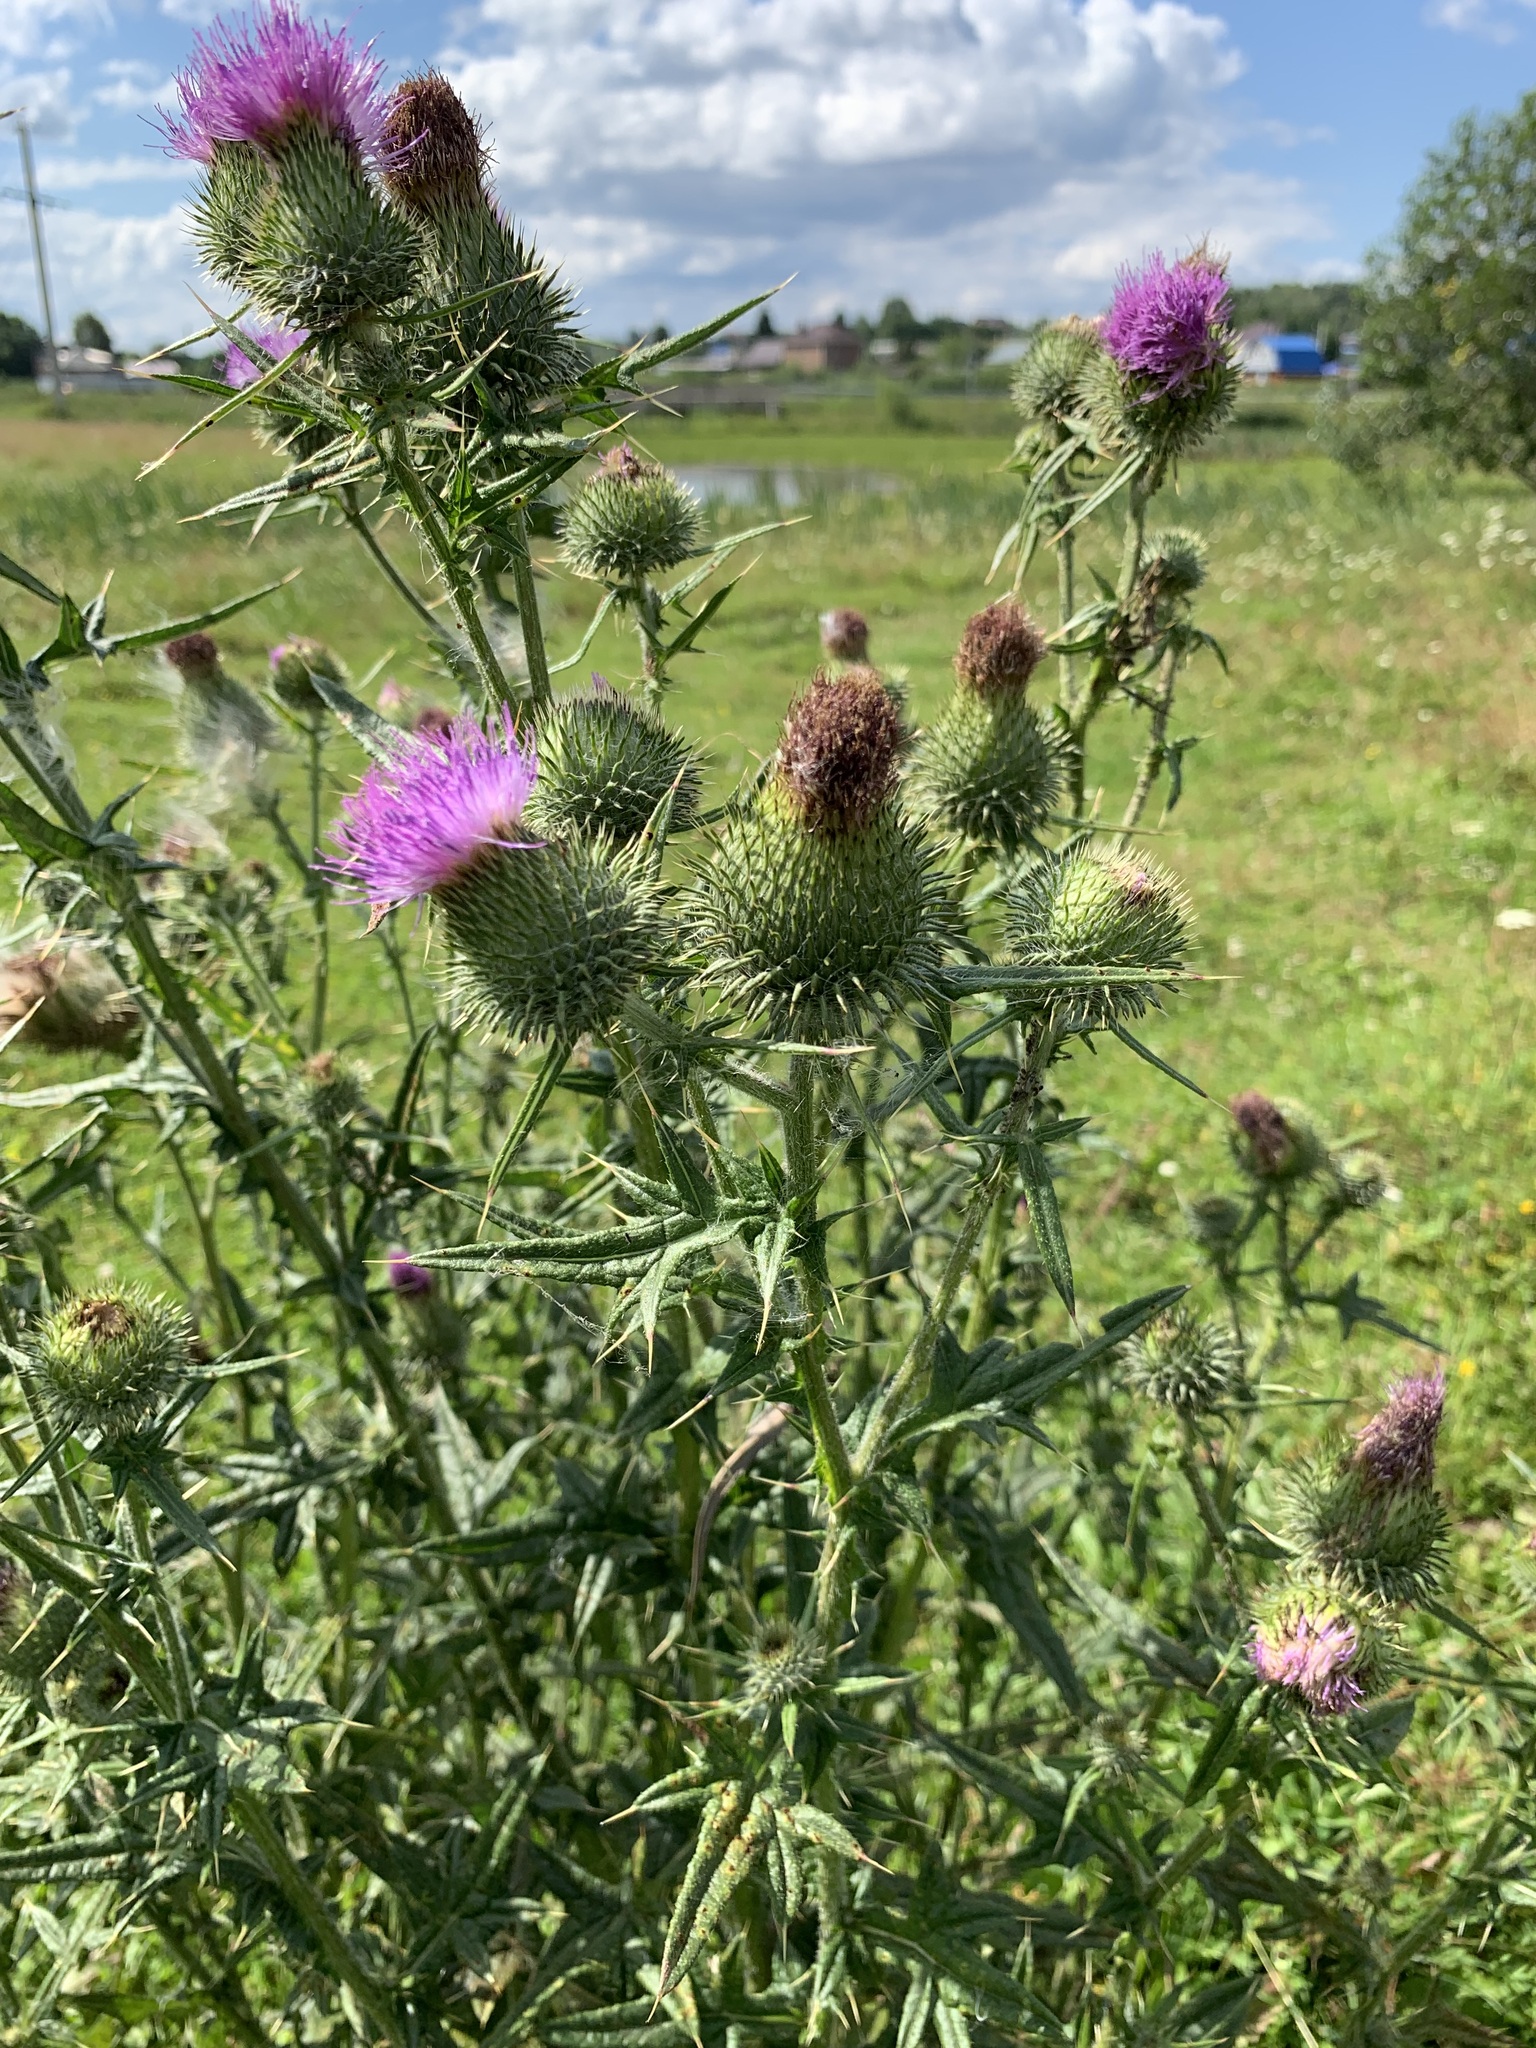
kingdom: Plantae
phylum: Tracheophyta
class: Magnoliopsida
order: Asterales
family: Asteraceae
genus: Cirsium
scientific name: Cirsium vulgare
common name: Bull thistle
